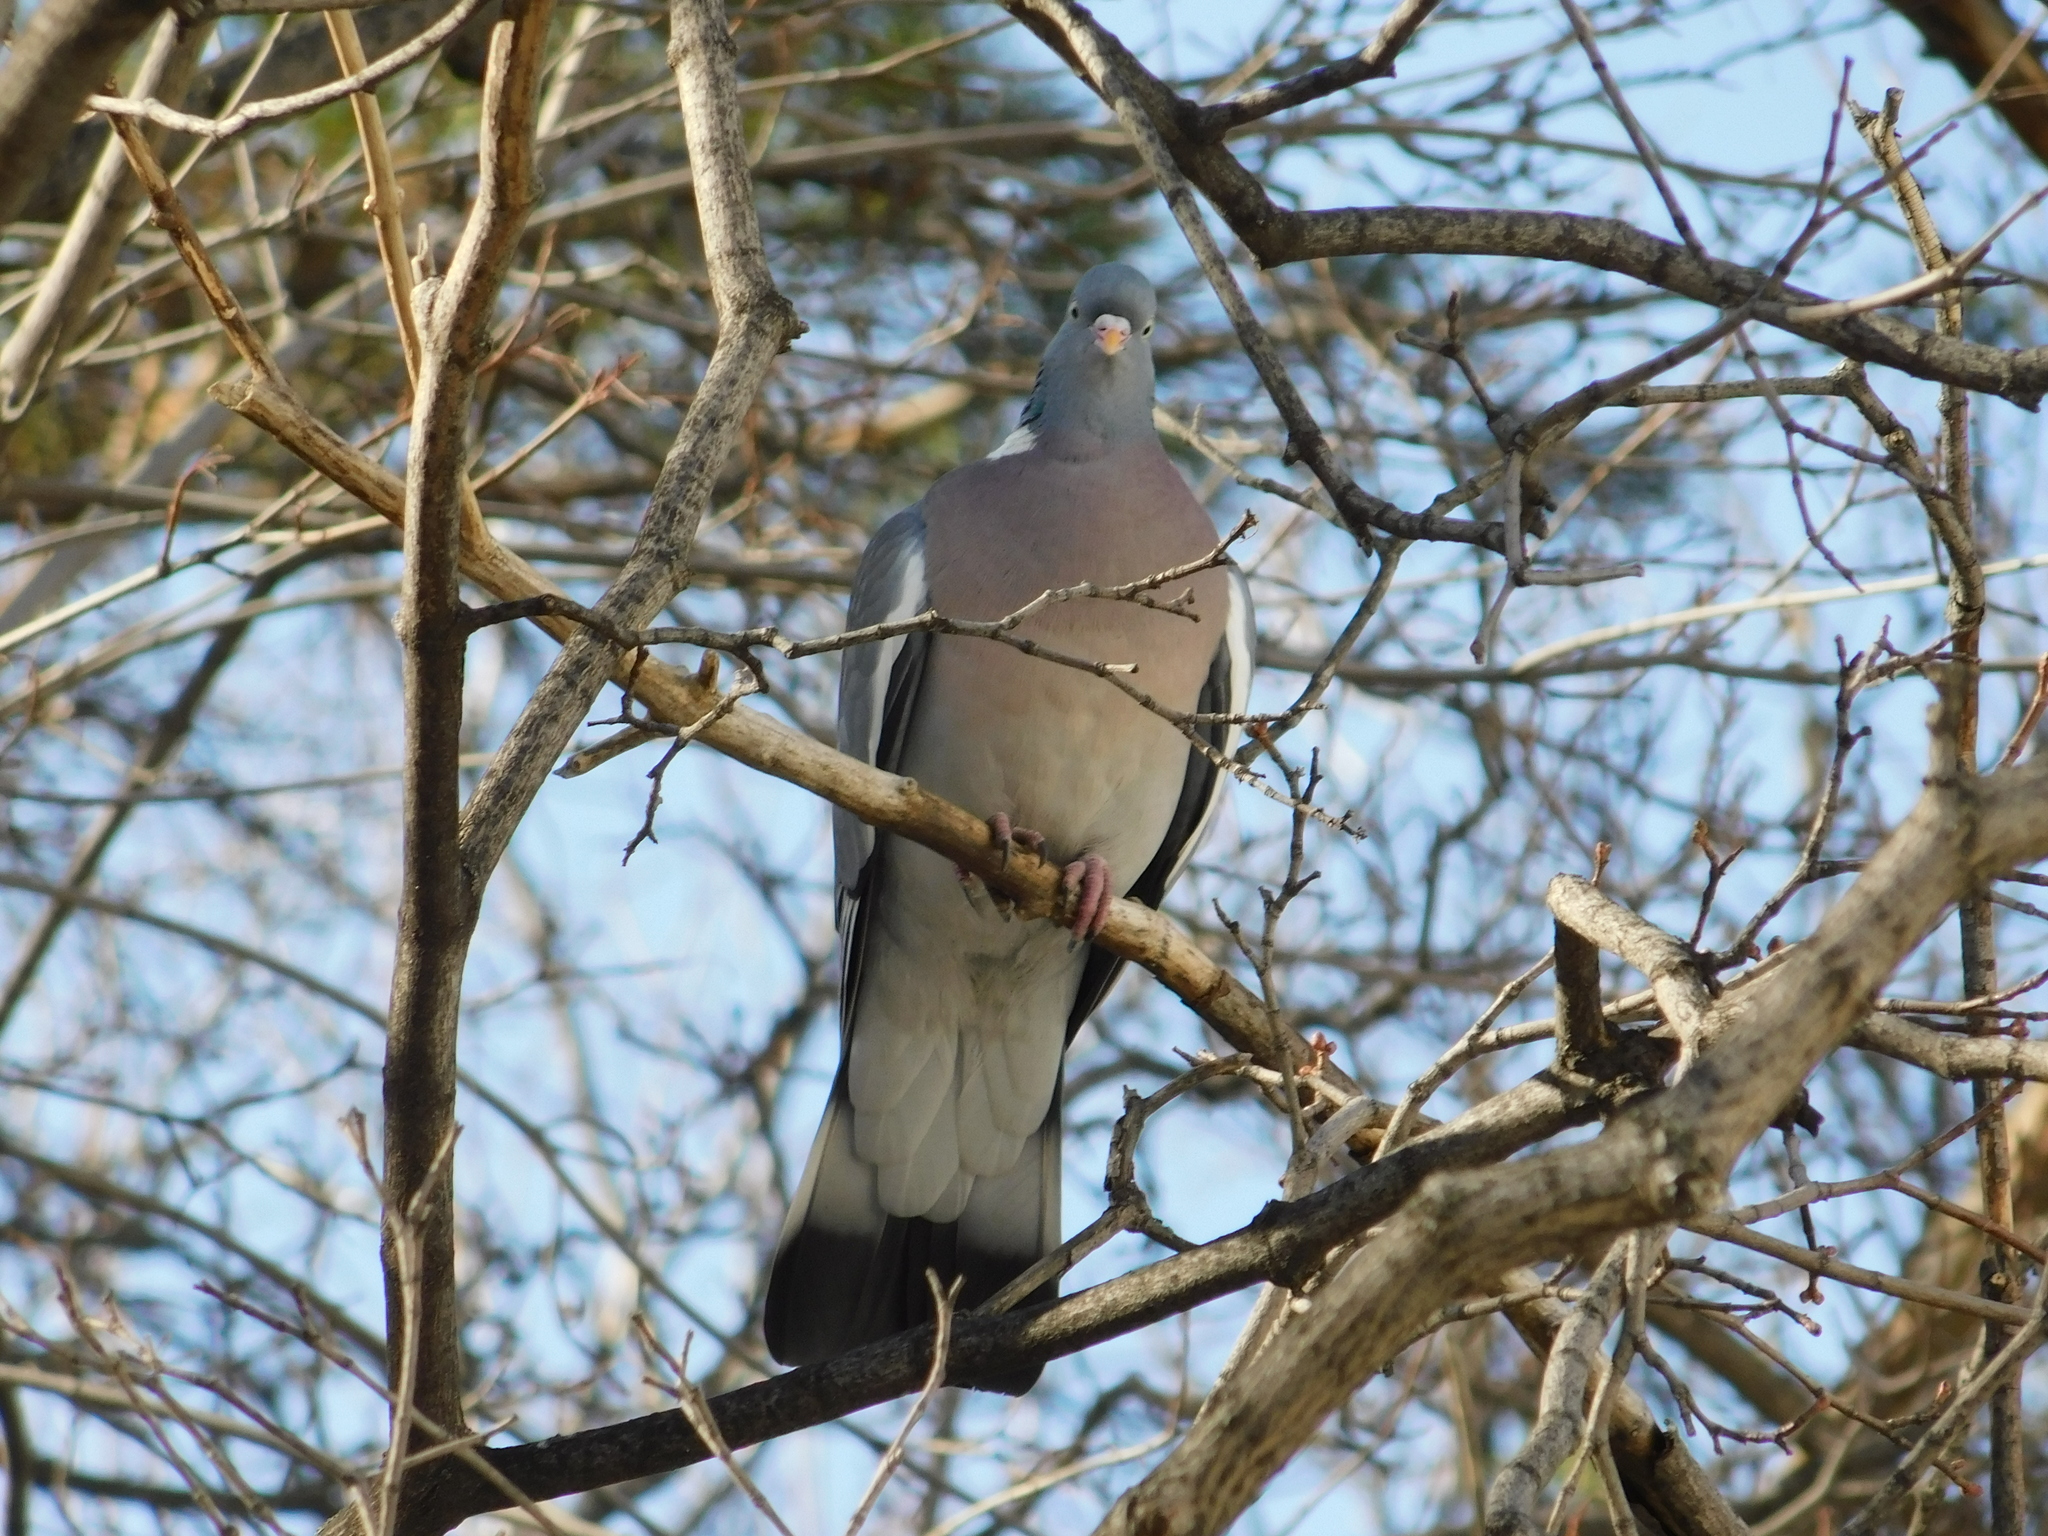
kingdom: Animalia
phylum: Chordata
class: Aves
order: Columbiformes
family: Columbidae
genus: Columba
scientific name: Columba palumbus
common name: Common wood pigeon
